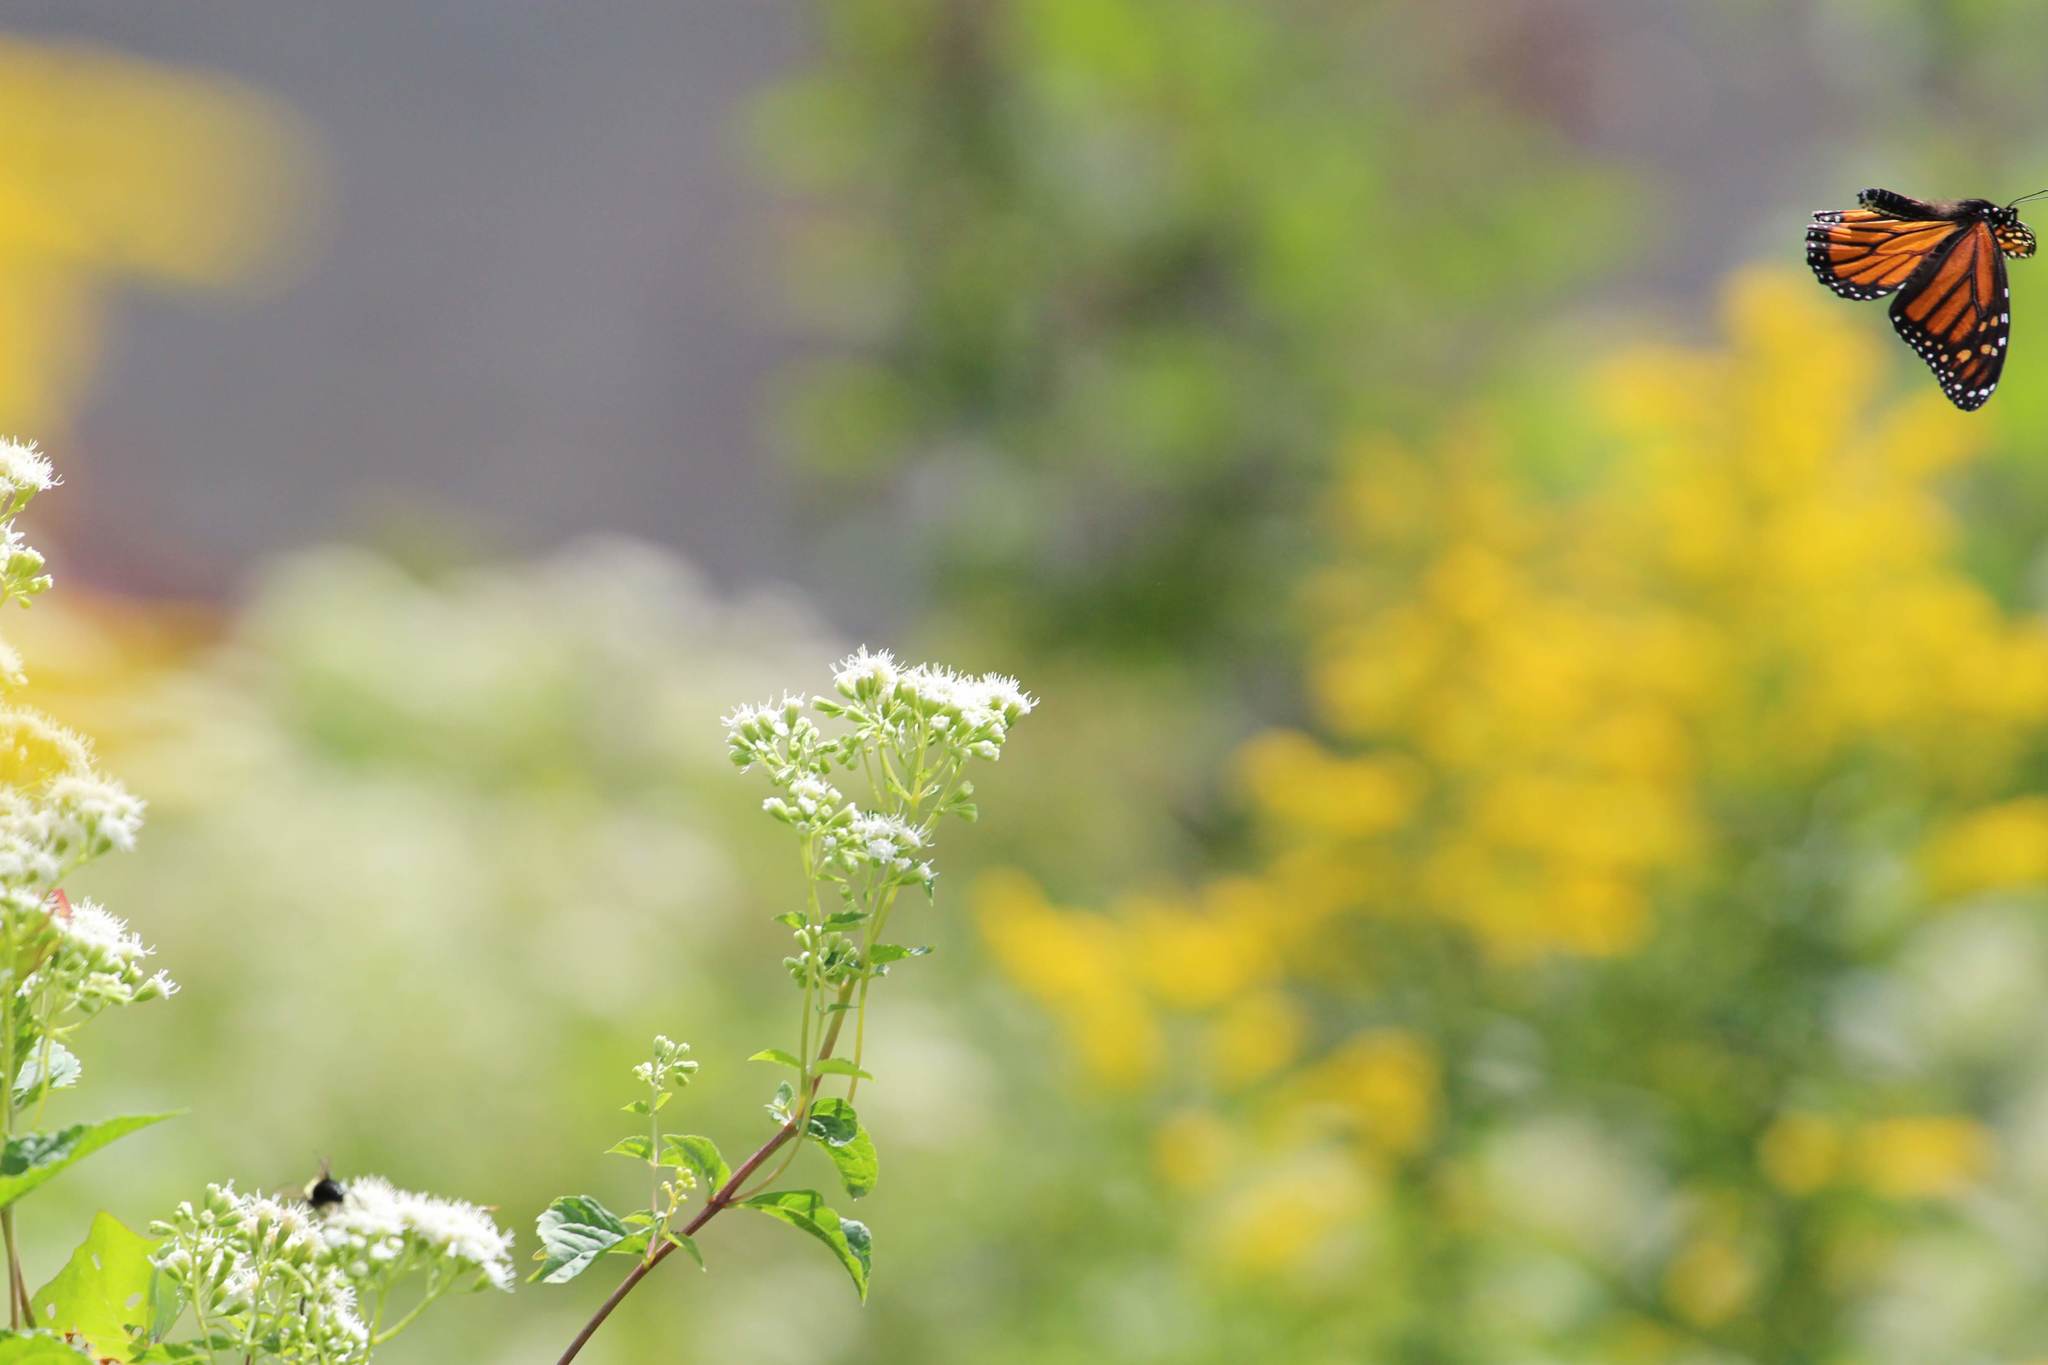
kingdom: Animalia
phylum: Arthropoda
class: Insecta
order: Lepidoptera
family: Nymphalidae
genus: Danaus
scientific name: Danaus plexippus
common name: Monarch
